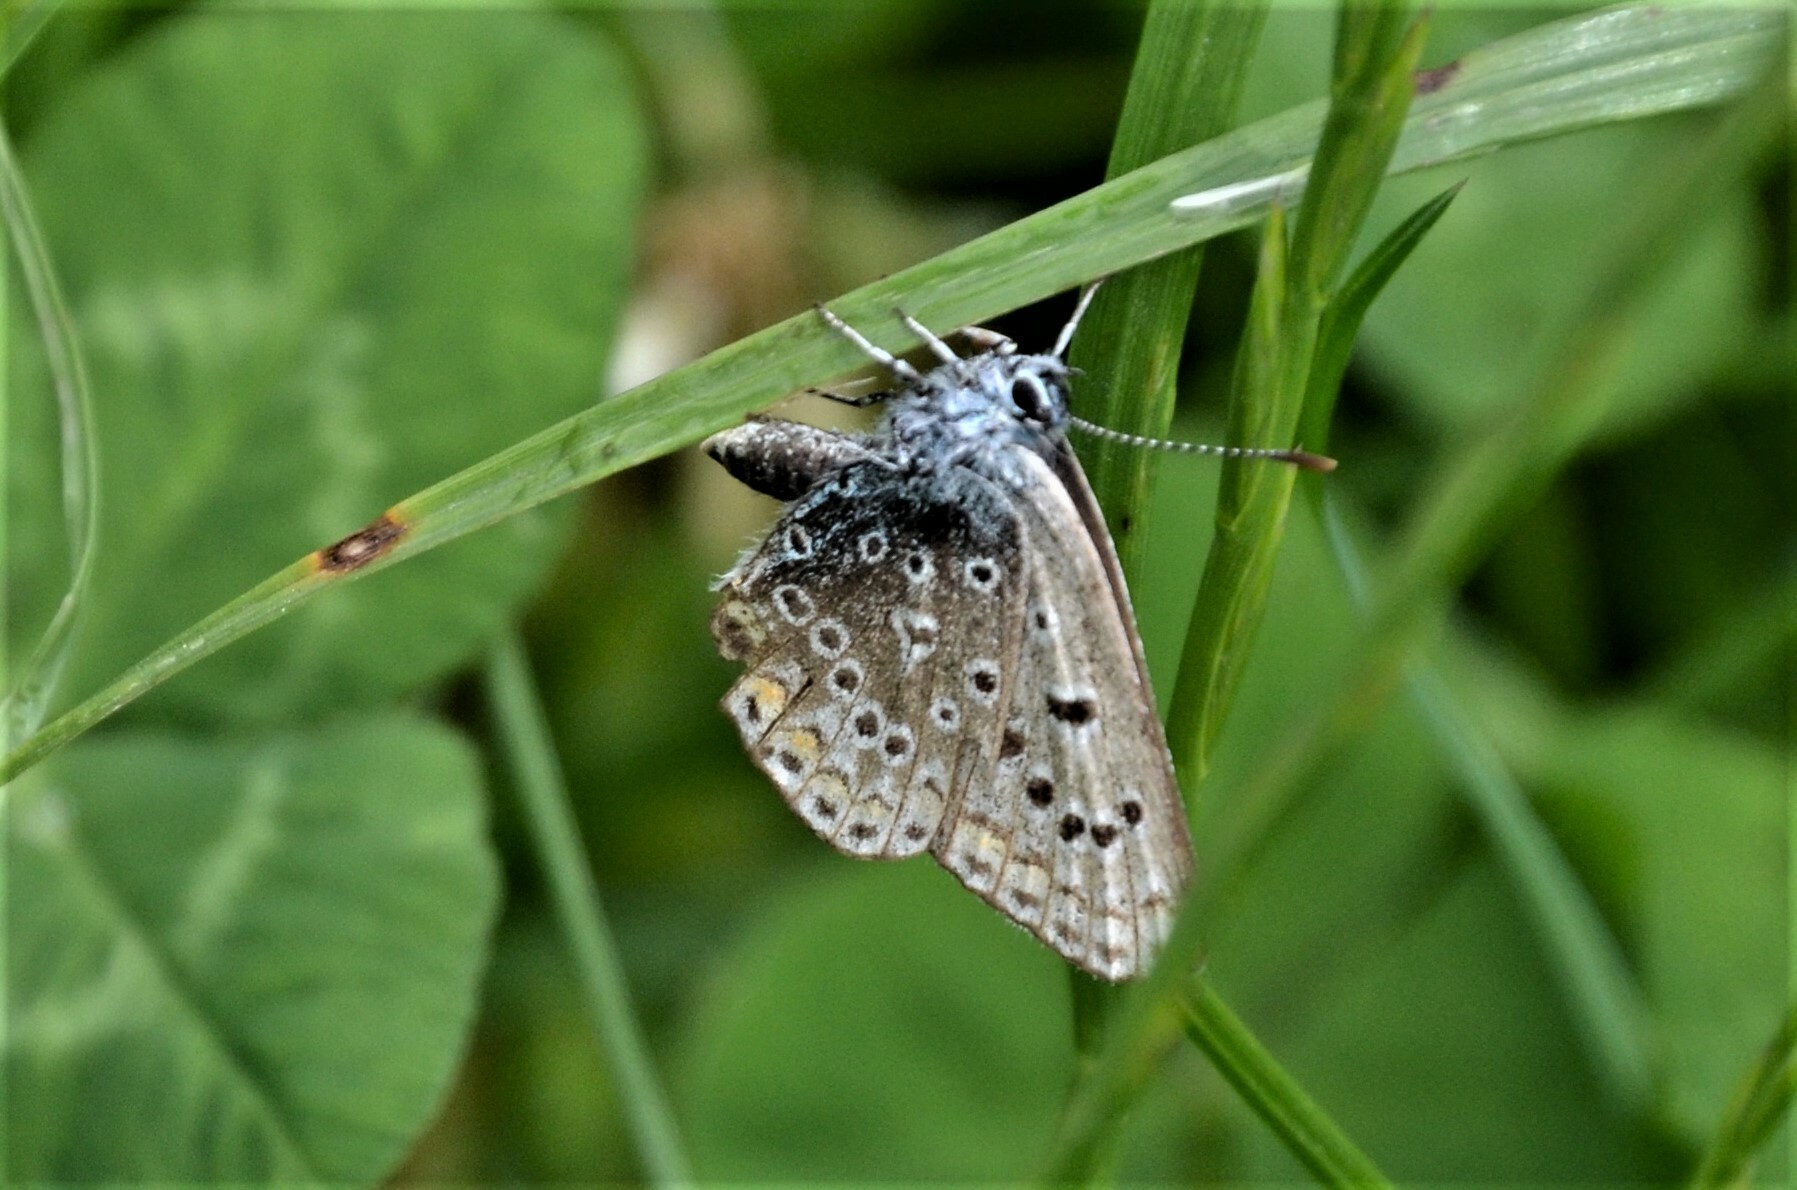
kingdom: Animalia
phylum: Arthropoda
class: Insecta
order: Lepidoptera
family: Lycaenidae
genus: Polyommatus
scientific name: Polyommatus icarus
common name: Common blue
